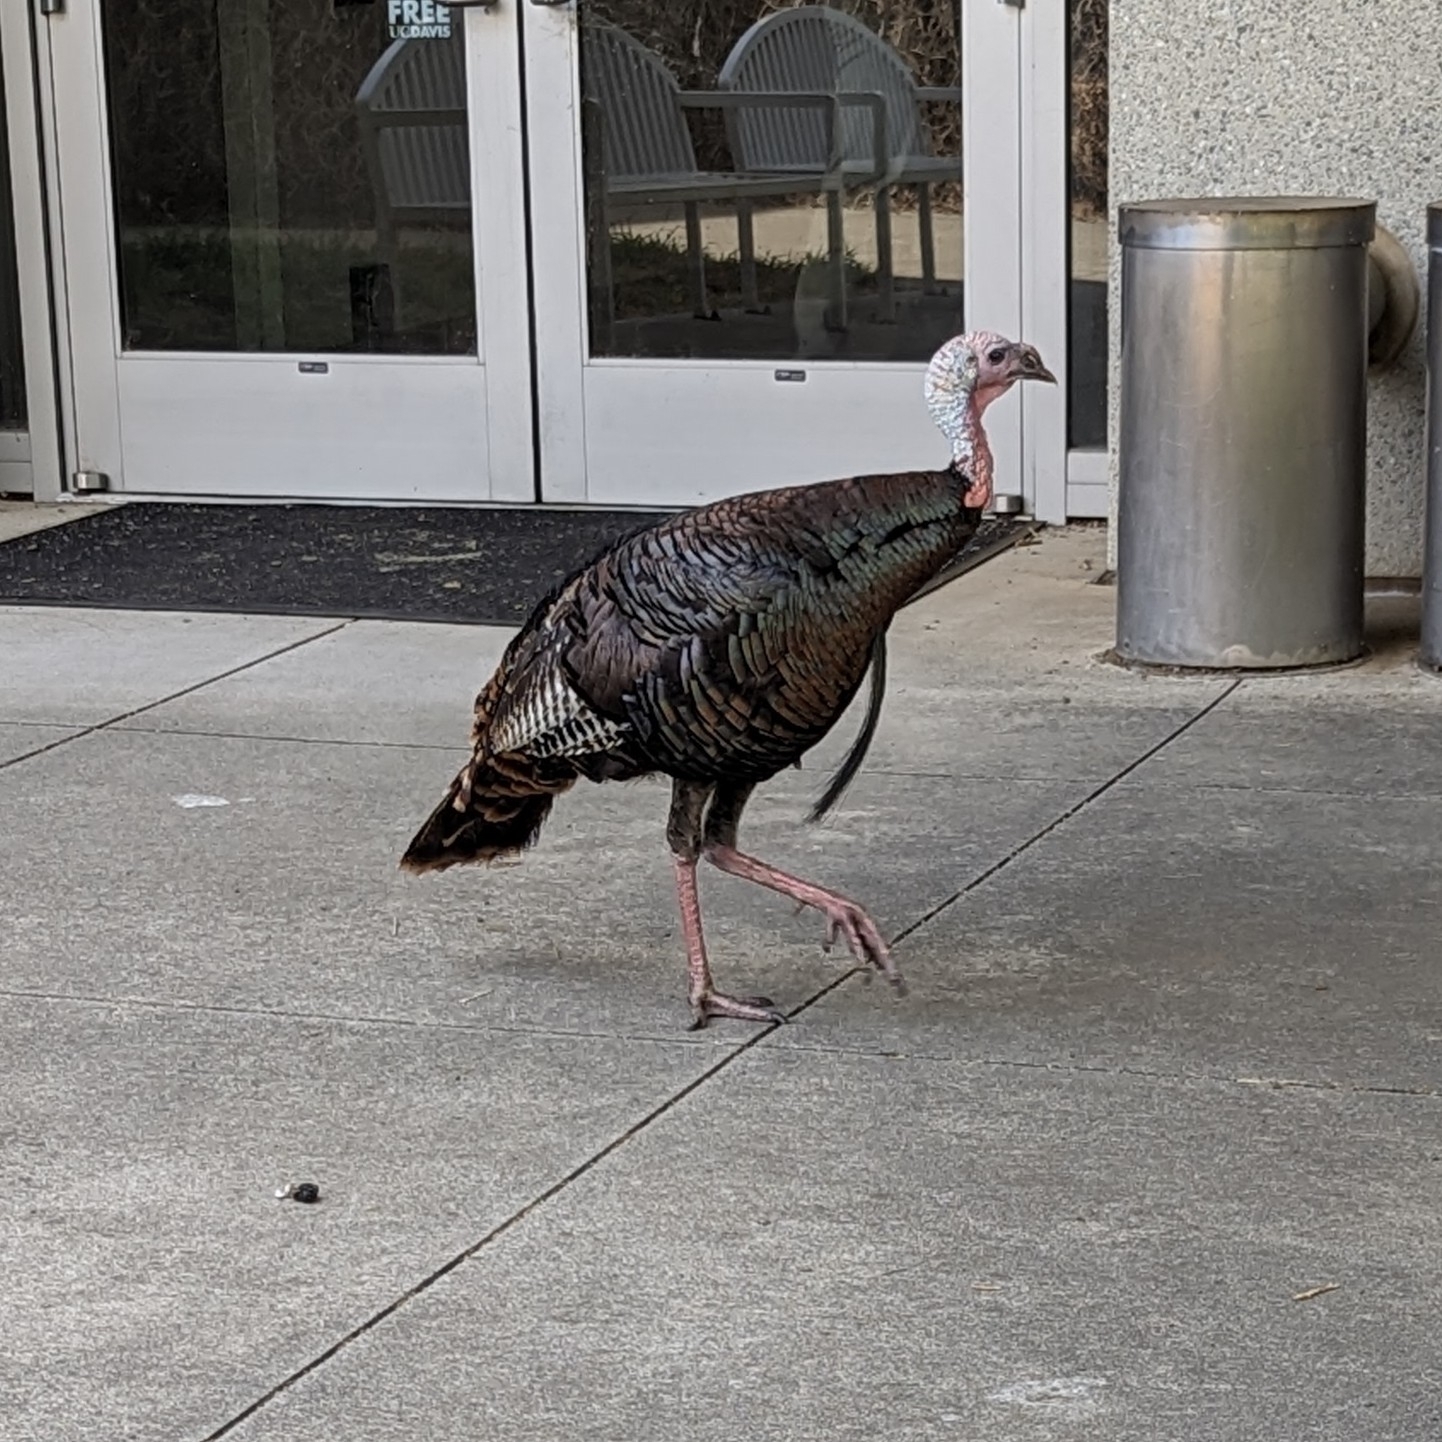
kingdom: Animalia
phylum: Chordata
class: Aves
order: Galliformes
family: Phasianidae
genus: Meleagris
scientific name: Meleagris gallopavo
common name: Wild turkey
